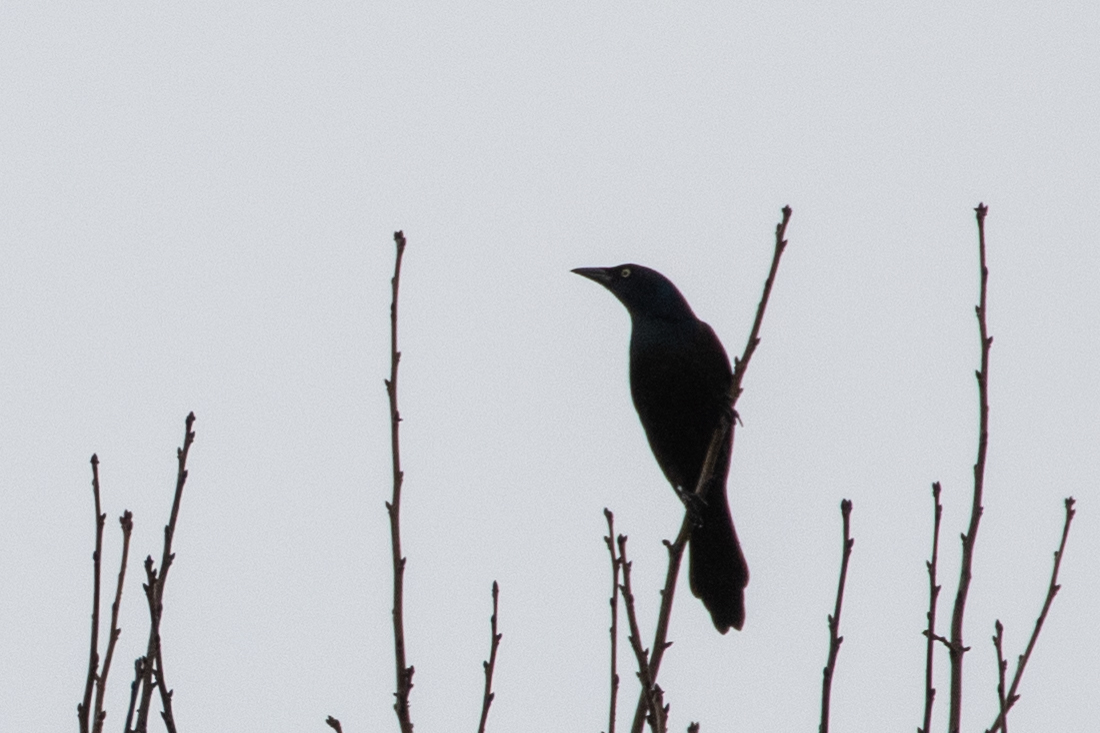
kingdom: Animalia
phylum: Chordata
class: Aves
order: Passeriformes
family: Icteridae
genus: Quiscalus
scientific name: Quiscalus quiscula
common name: Common grackle
